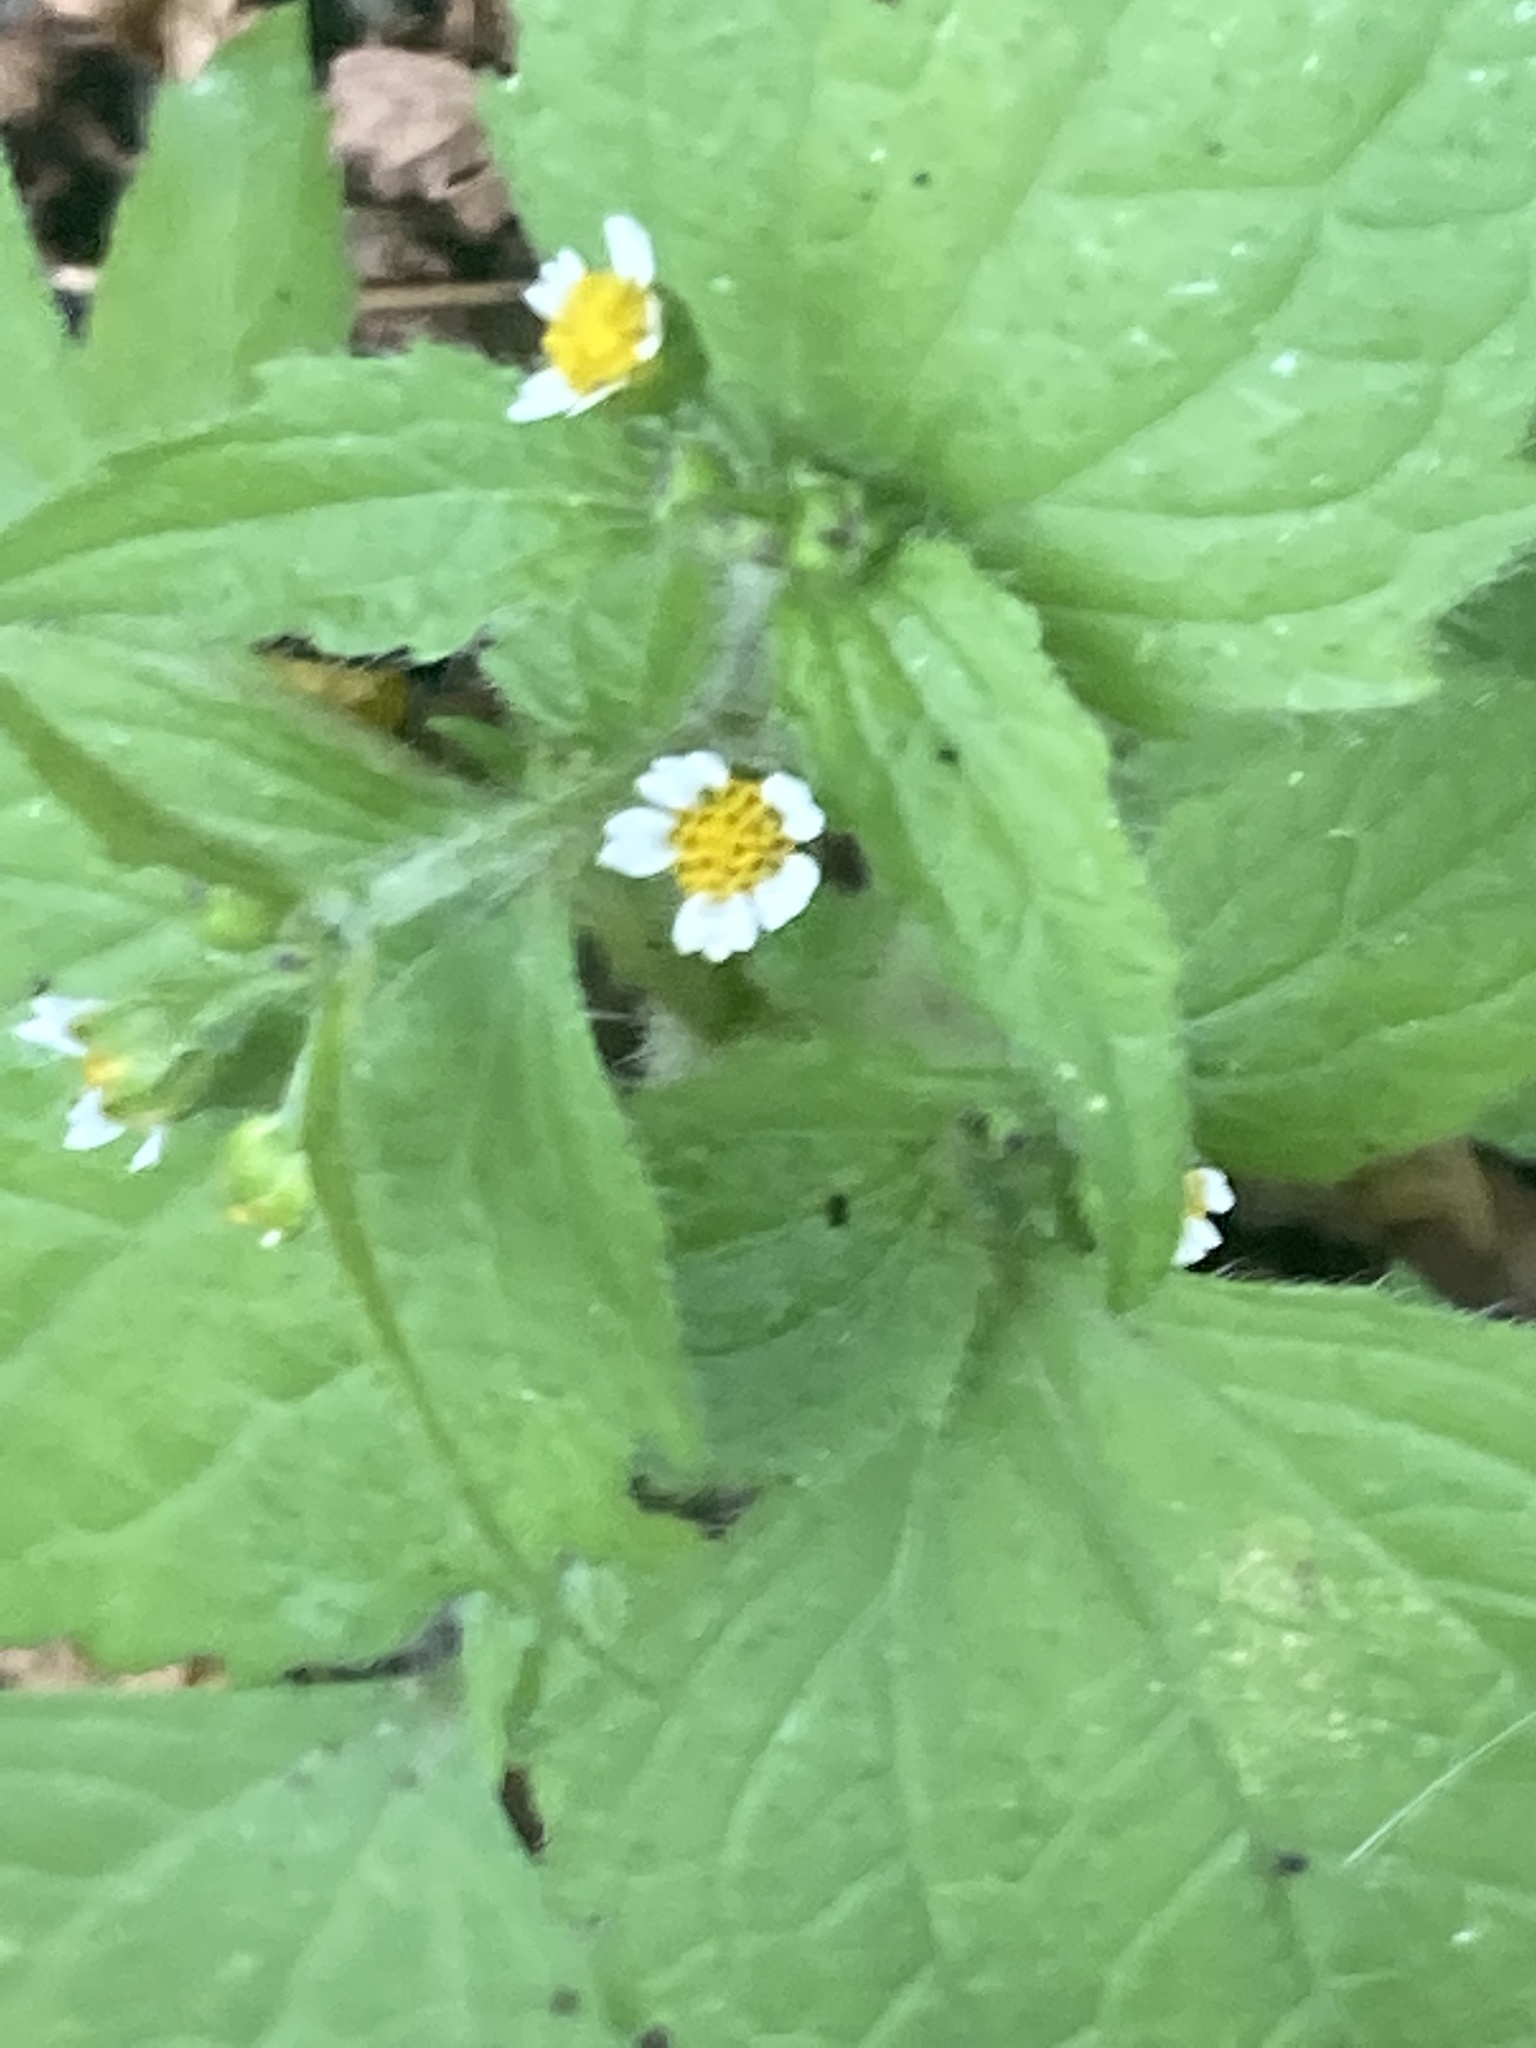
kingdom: Plantae
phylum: Tracheophyta
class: Magnoliopsida
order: Asterales
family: Asteraceae
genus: Galinsoga
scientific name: Galinsoga quadriradiata
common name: Shaggy soldier
